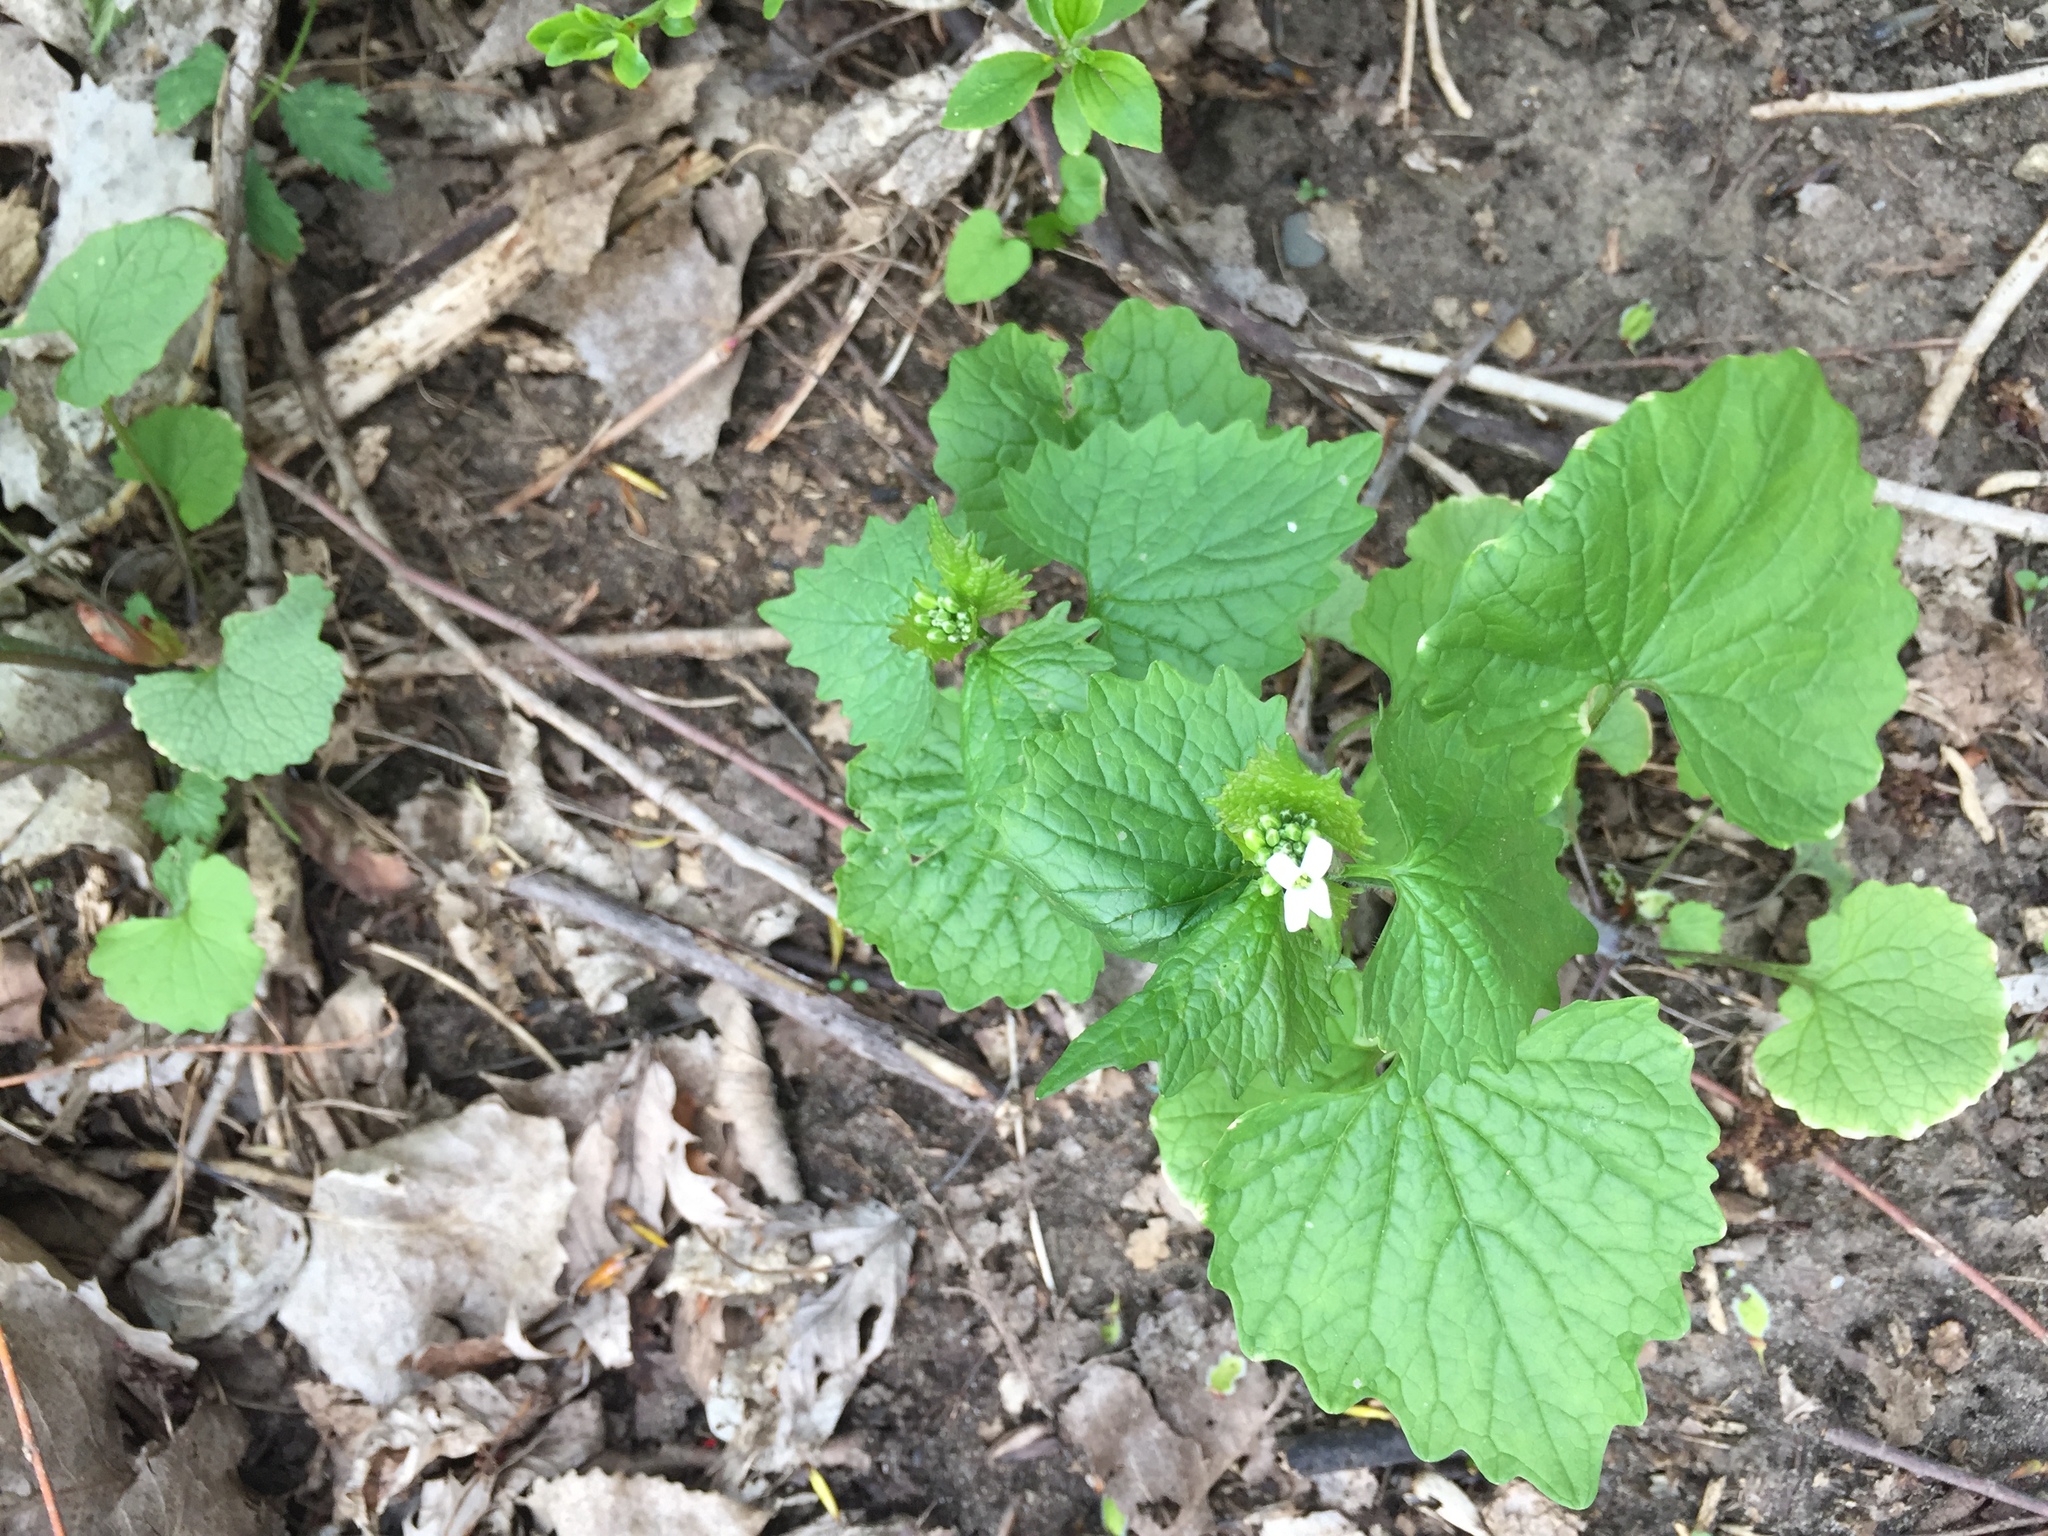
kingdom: Plantae
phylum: Tracheophyta
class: Magnoliopsida
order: Brassicales
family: Brassicaceae
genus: Alliaria
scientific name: Alliaria petiolata
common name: Garlic mustard
